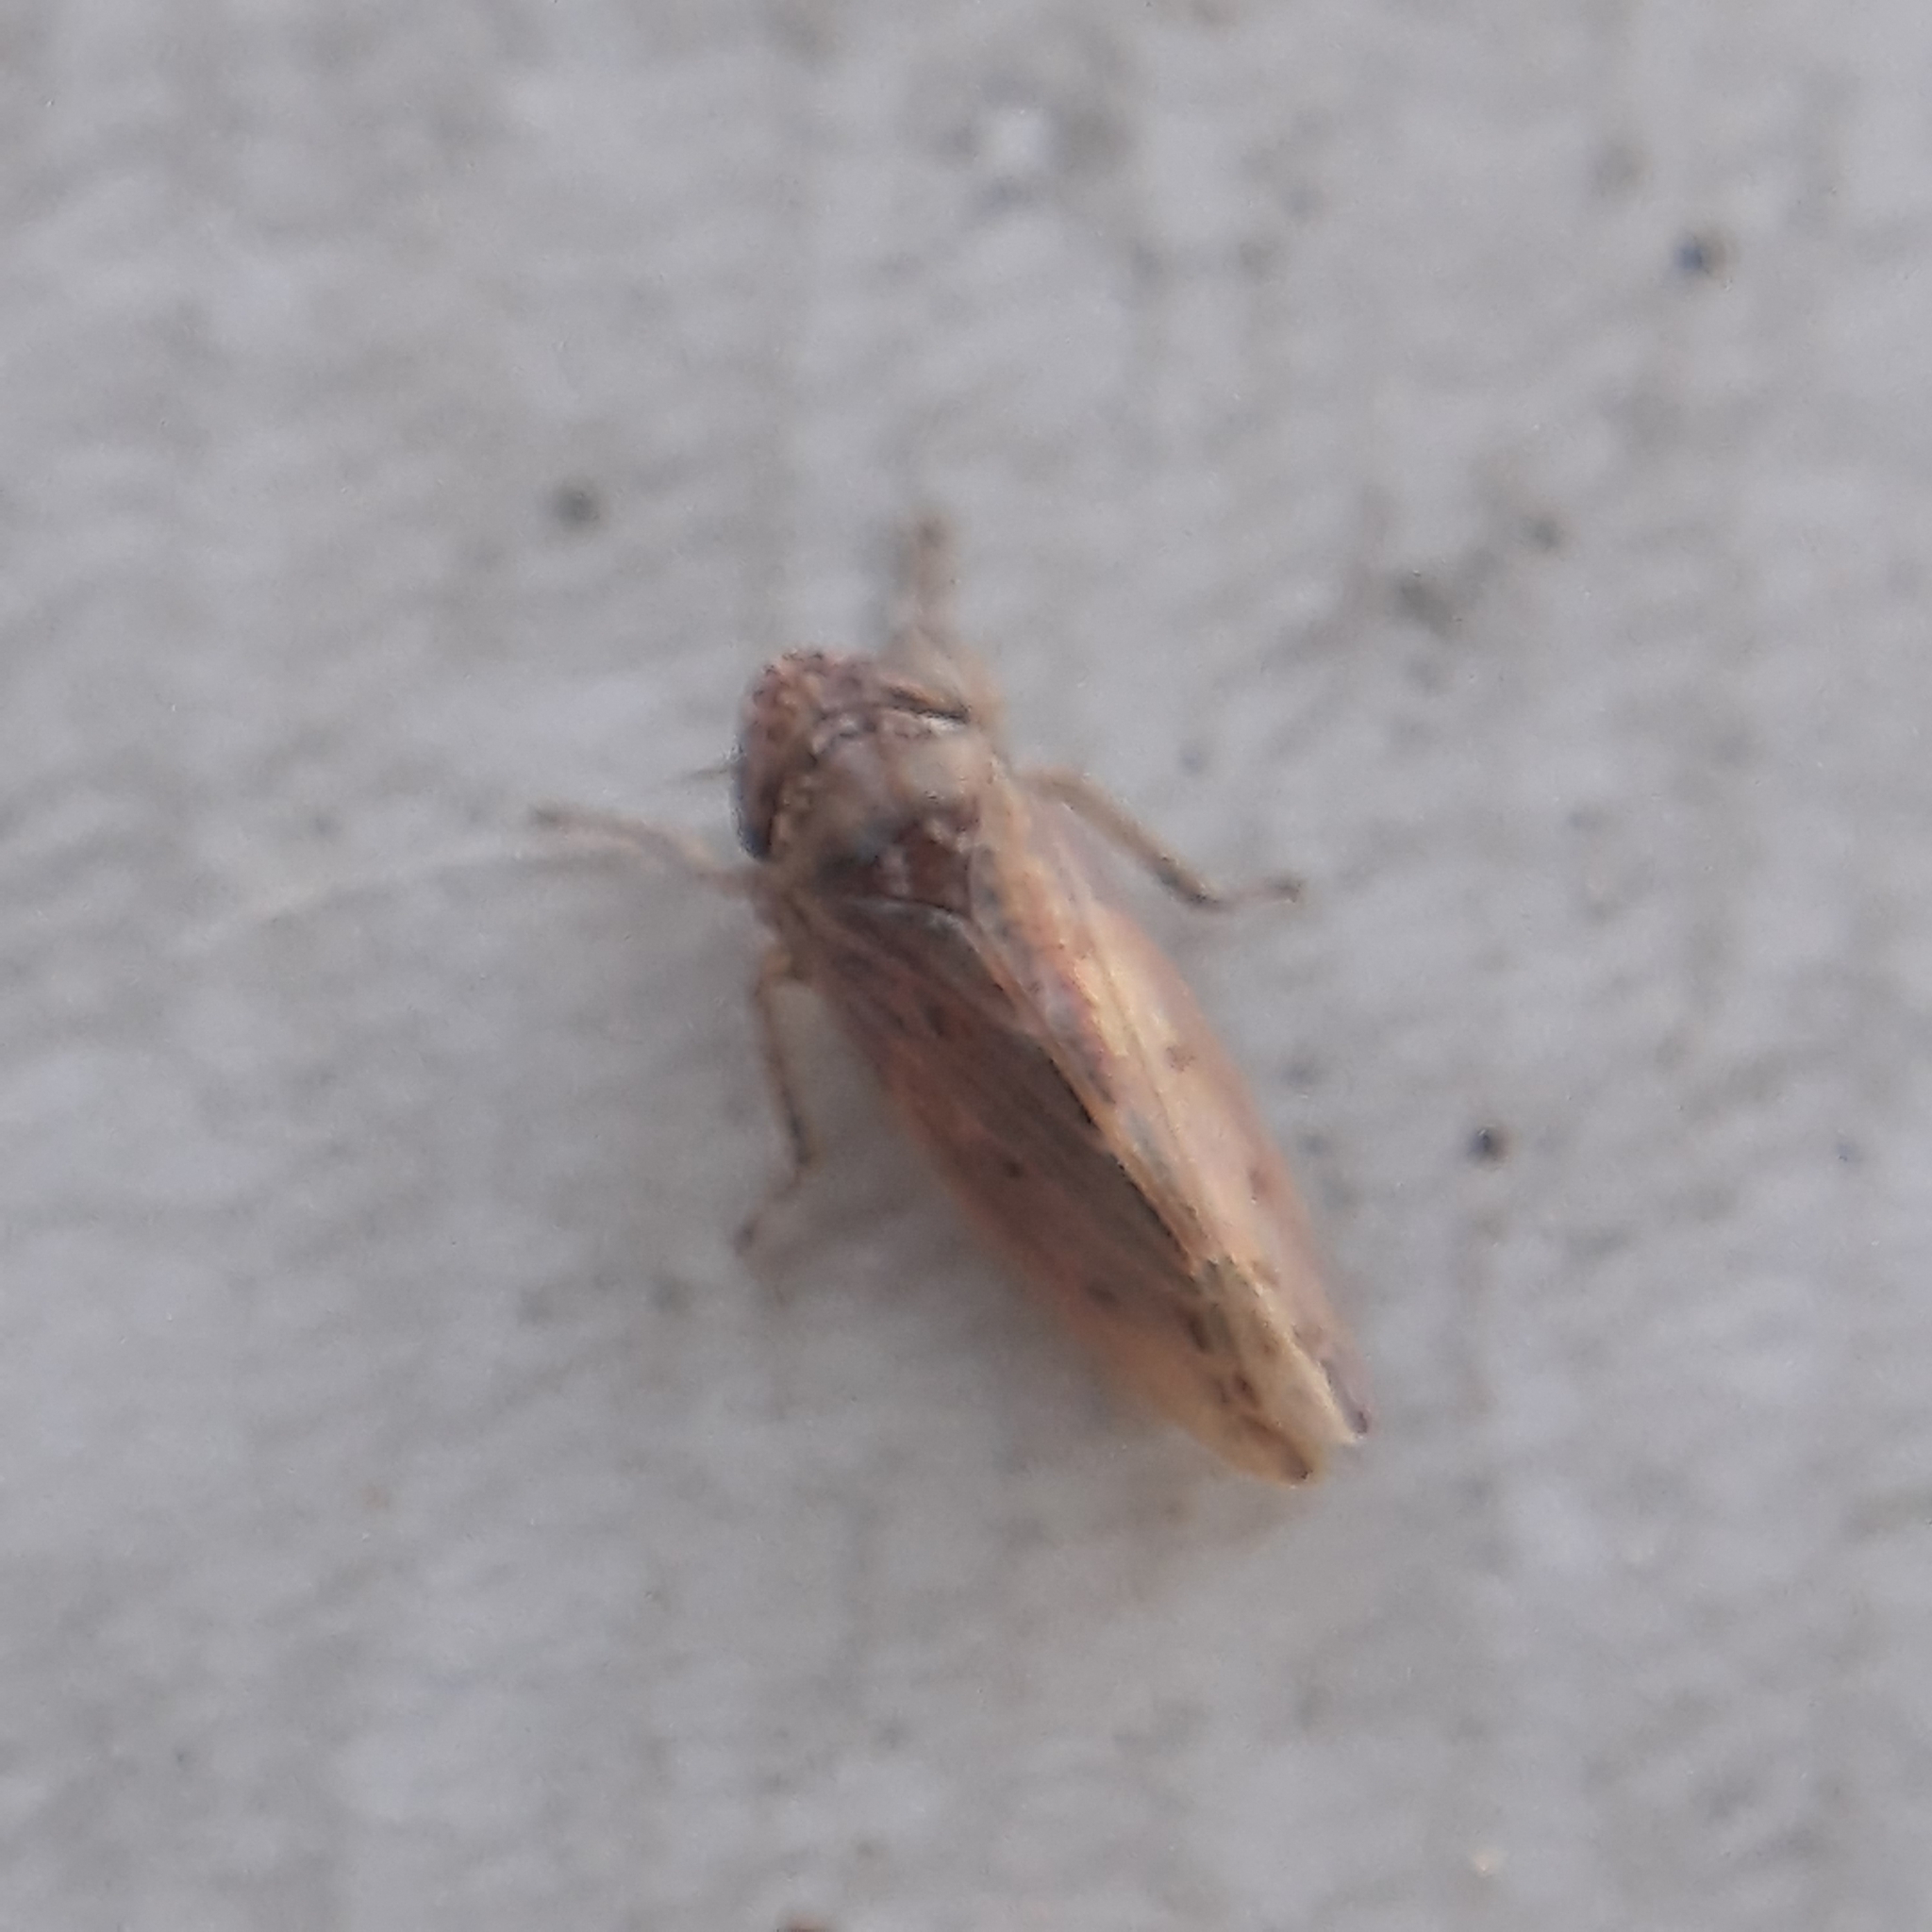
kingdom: Animalia
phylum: Arthropoda
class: Insecta
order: Hemiptera
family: Cicadellidae
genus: Hardya
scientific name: Hardya tenuis
